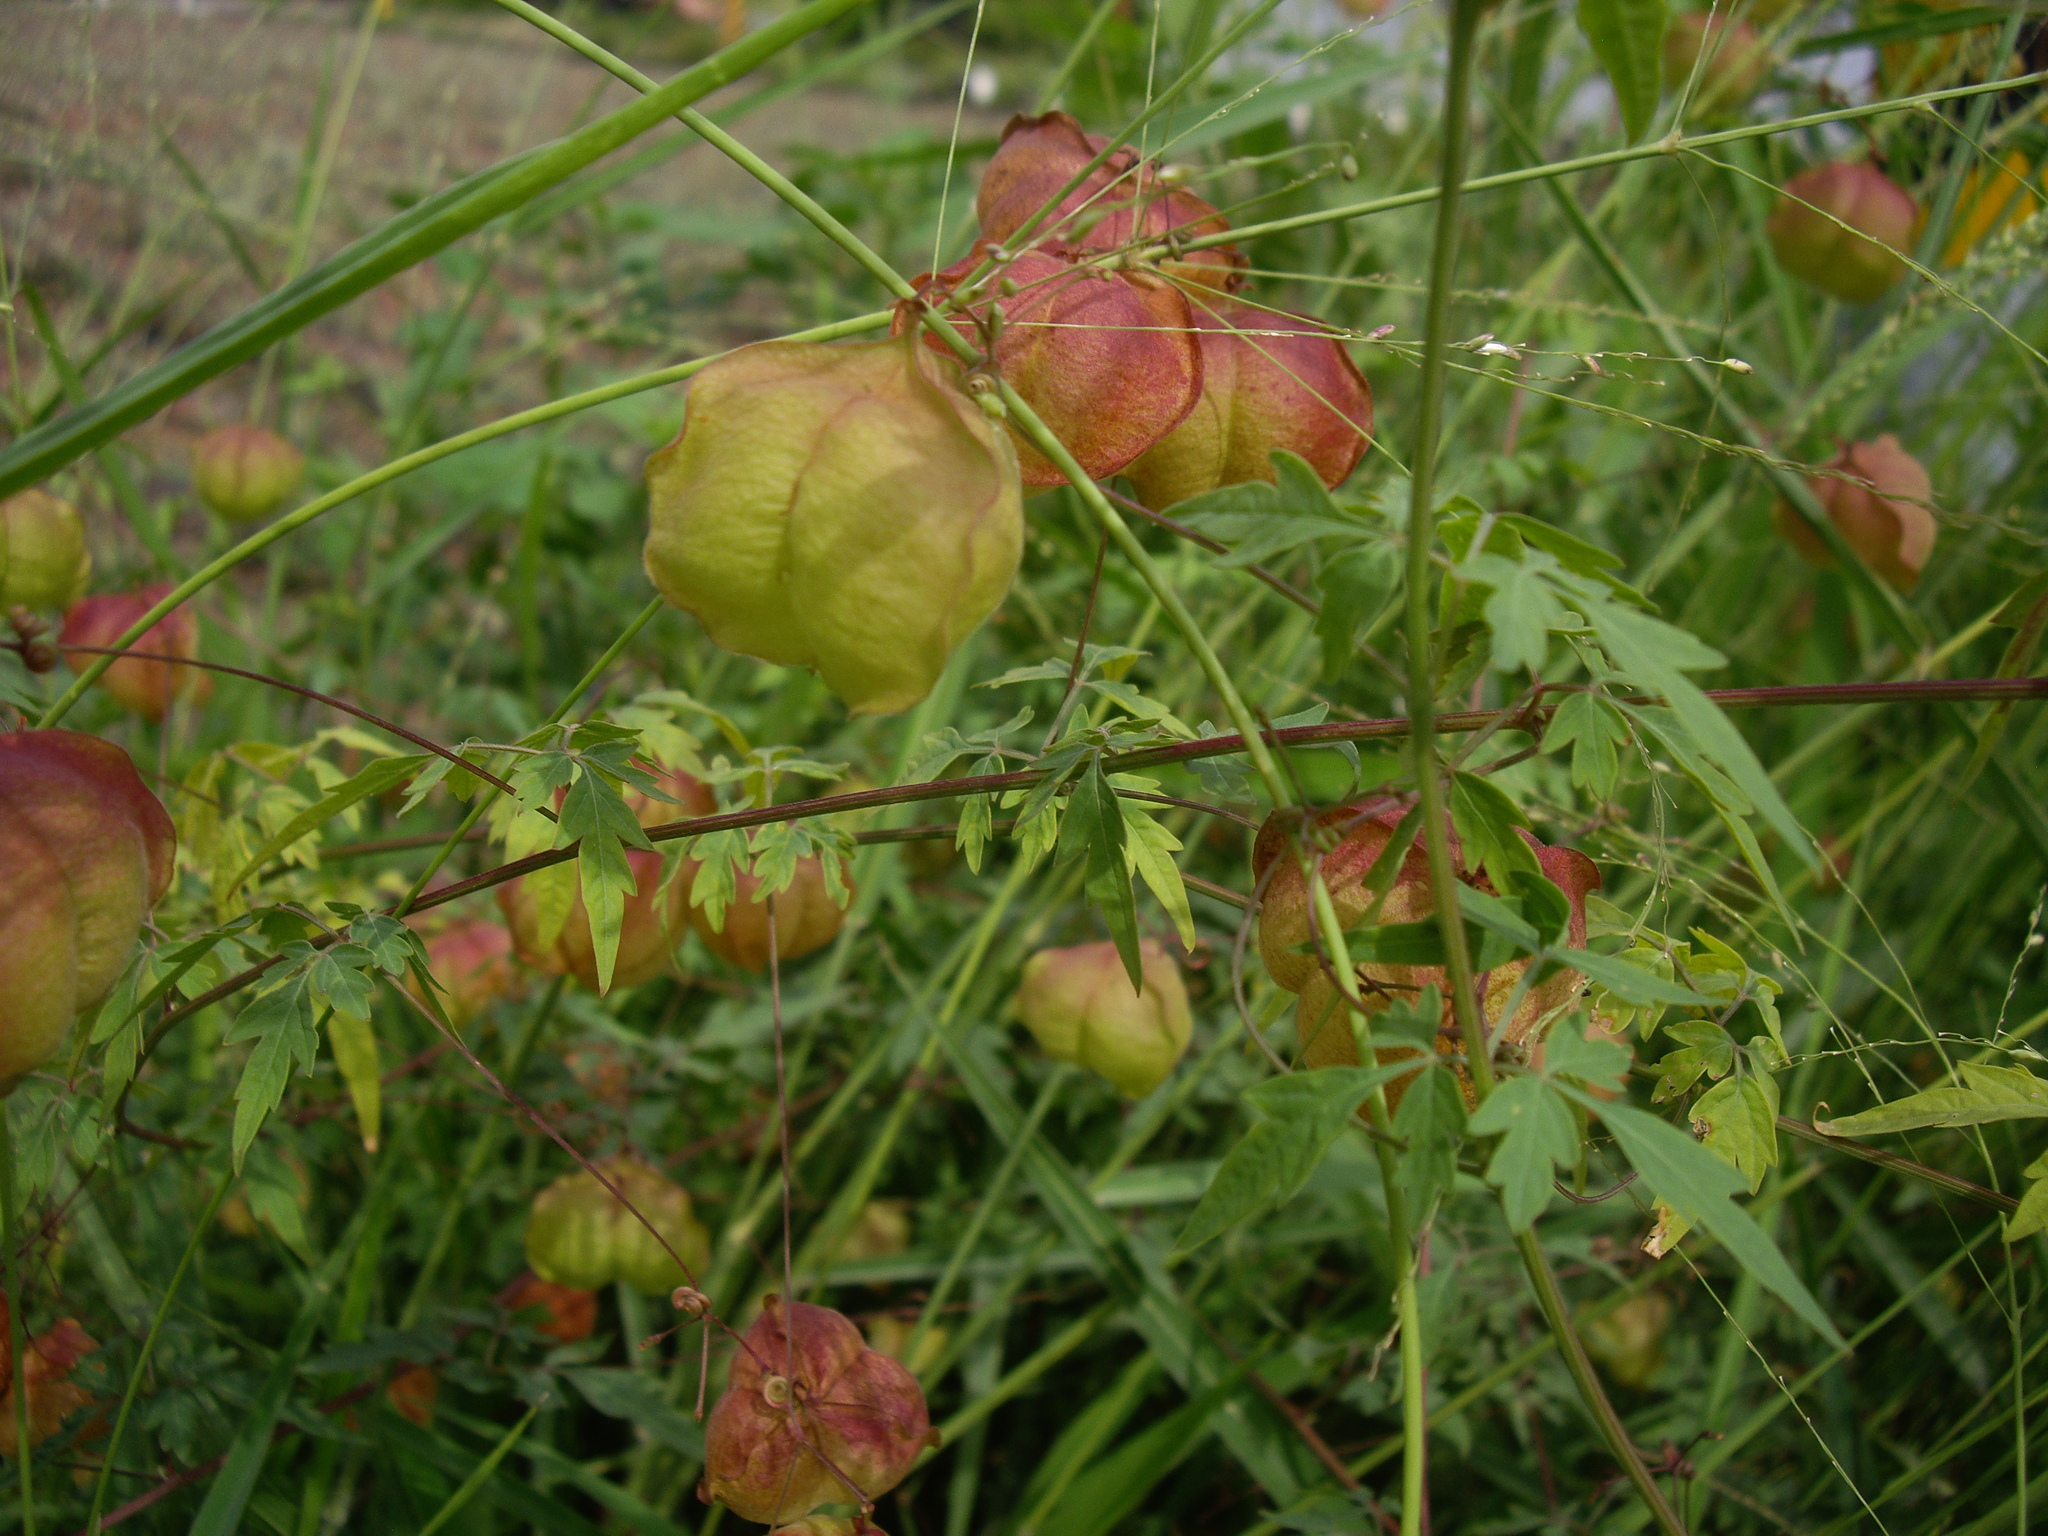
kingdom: Plantae
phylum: Tracheophyta
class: Magnoliopsida
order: Sapindales
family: Sapindaceae
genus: Cardiospermum
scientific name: Cardiospermum halicacabum
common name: Balloon vine
